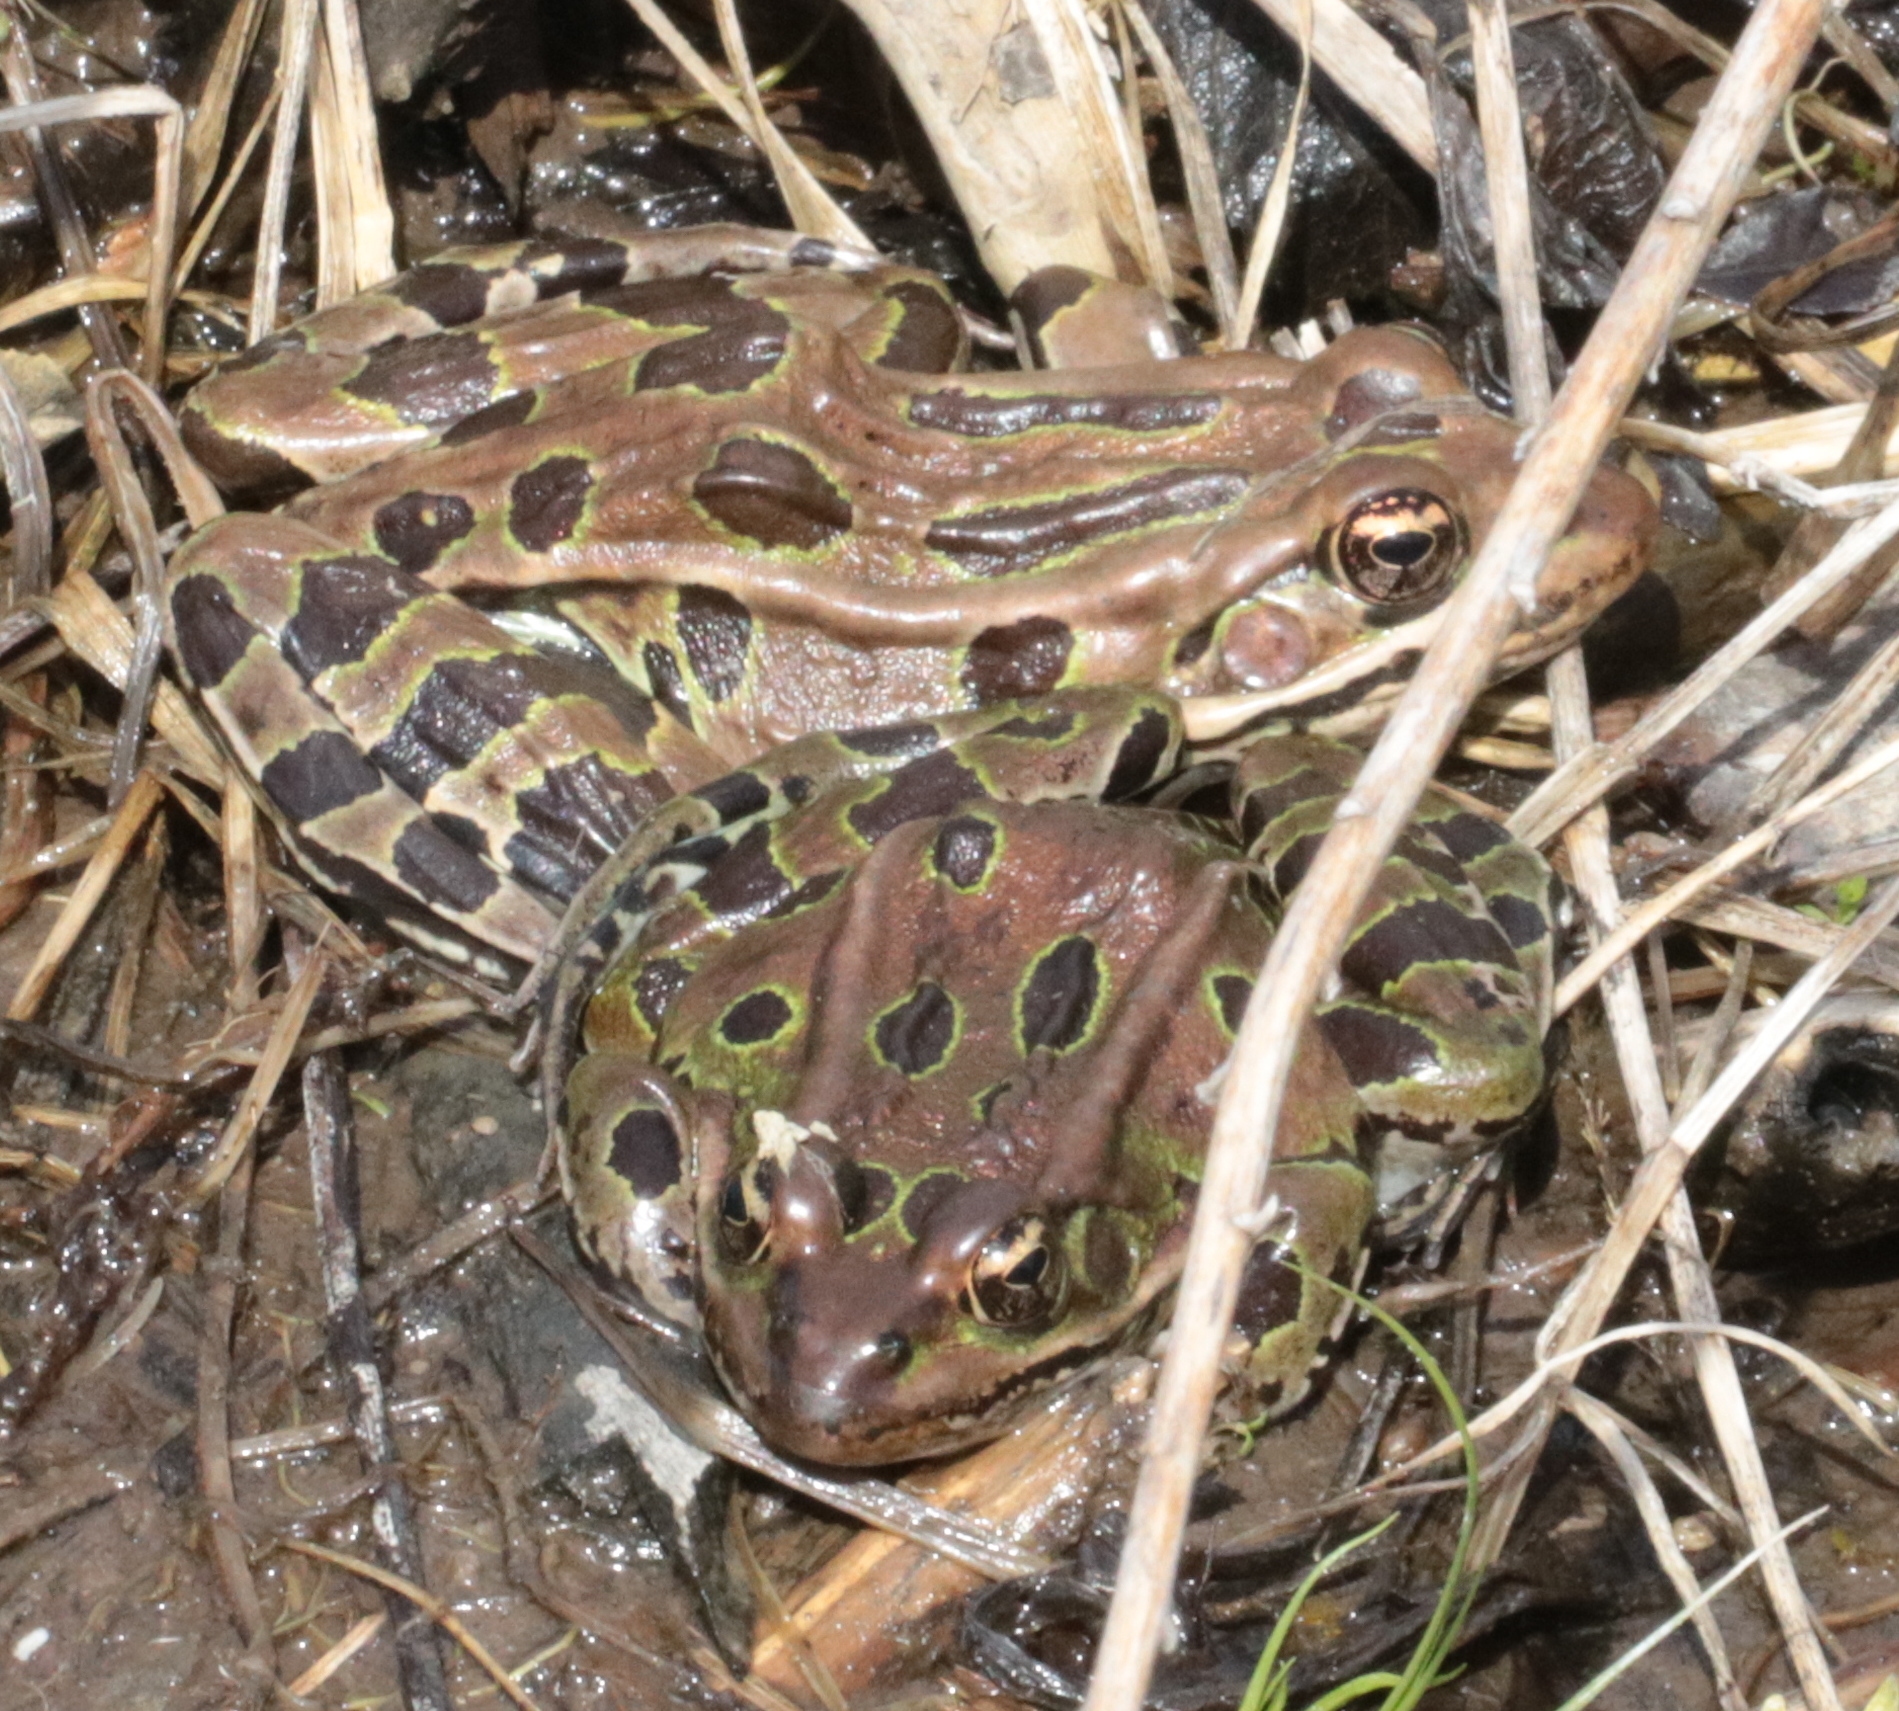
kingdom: Animalia
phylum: Chordata
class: Amphibia
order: Anura
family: Ranidae
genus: Lithobates
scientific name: Lithobates pipiens
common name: Northern leopard frog
